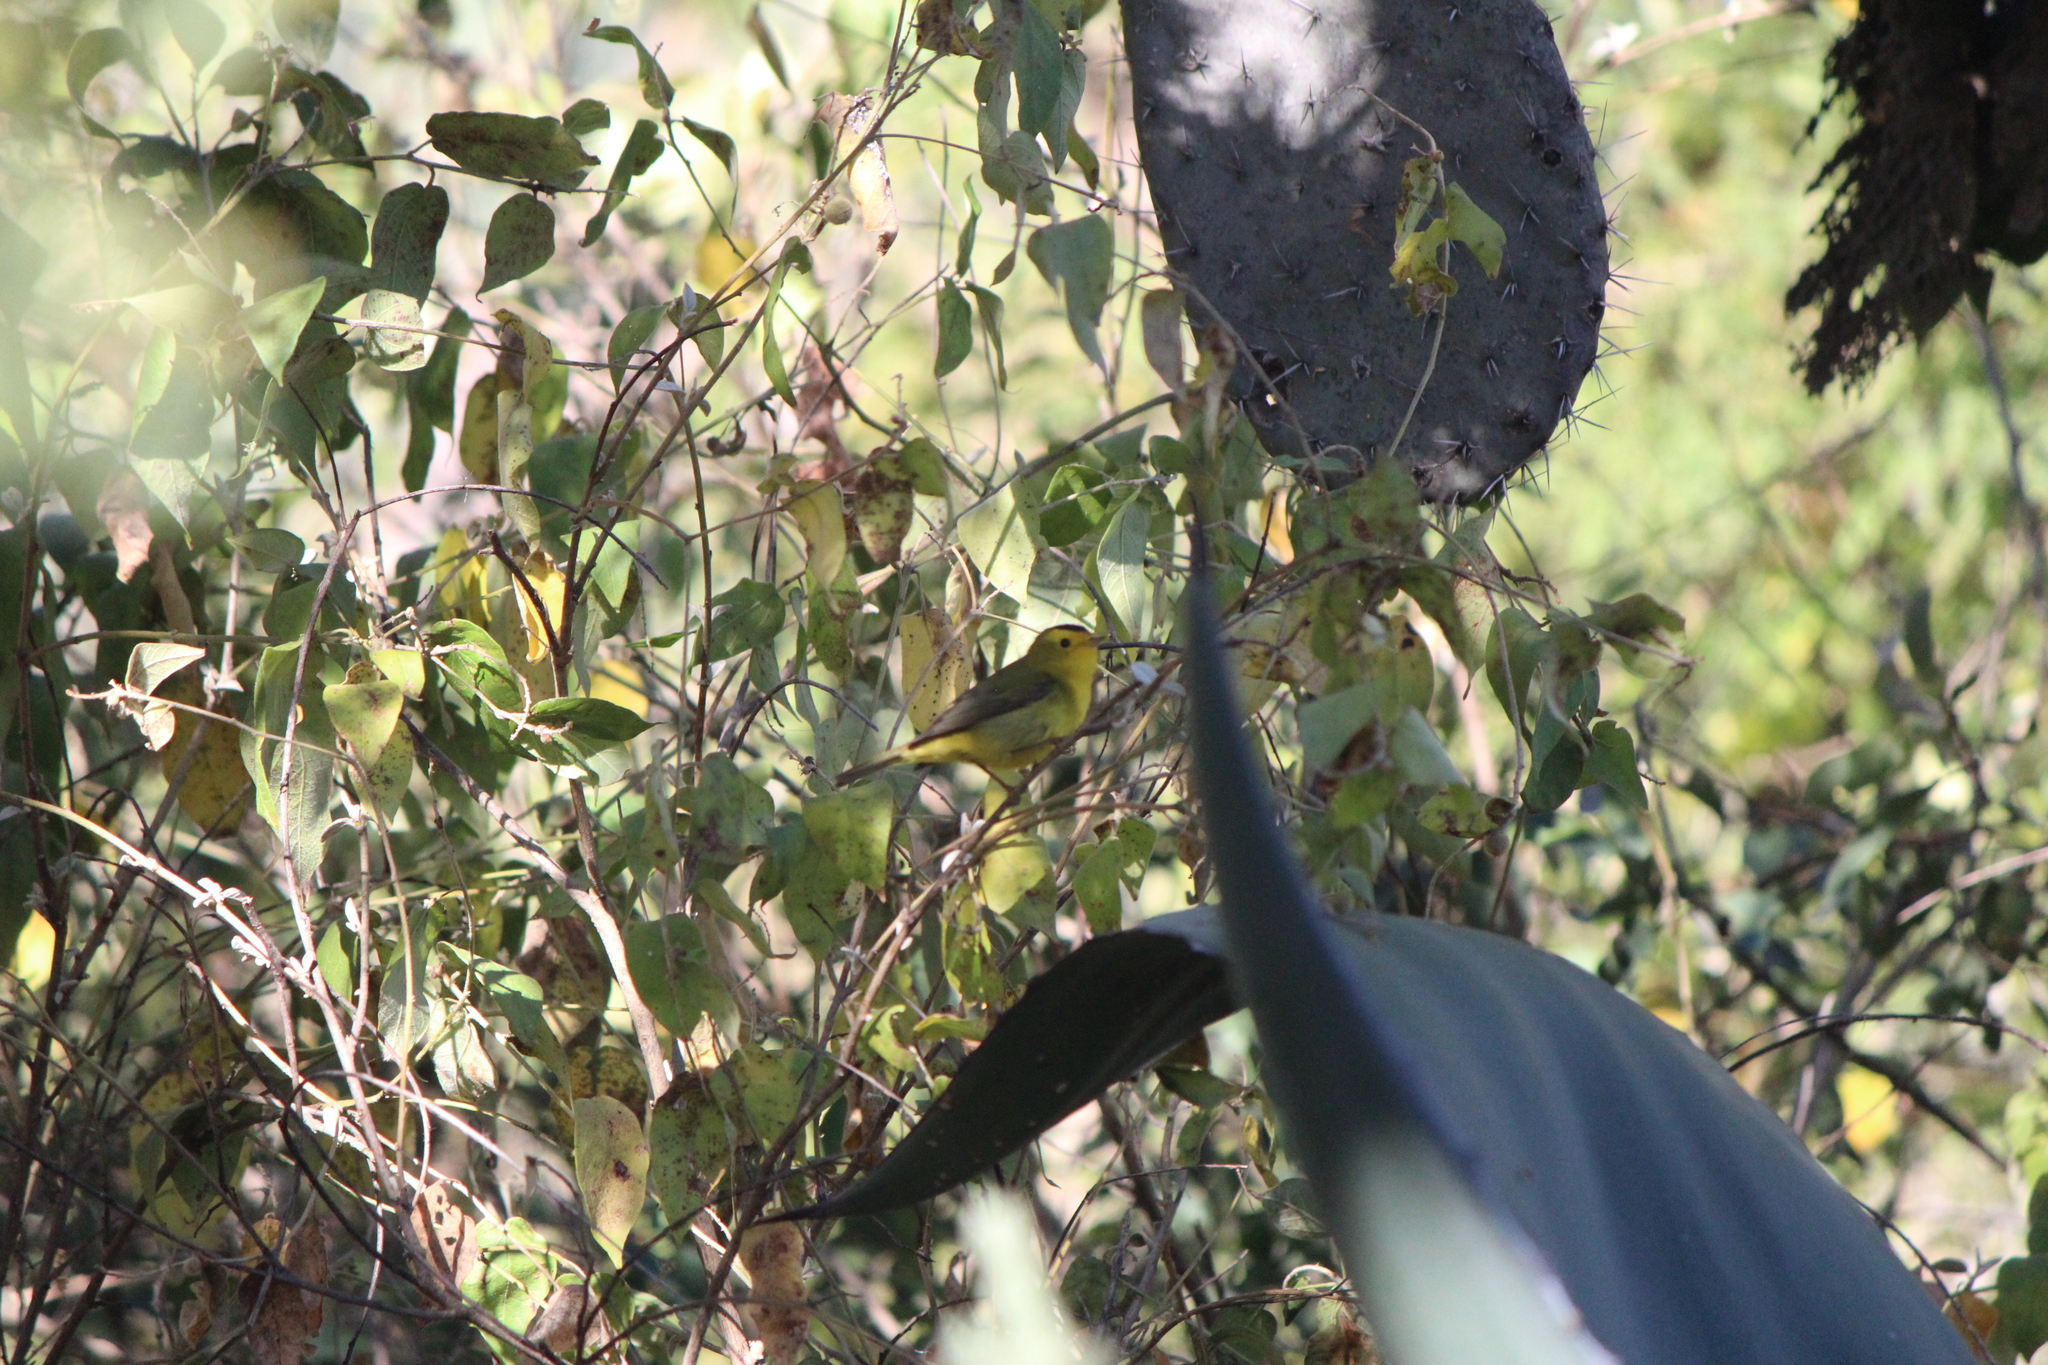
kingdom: Animalia
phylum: Chordata
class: Aves
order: Passeriformes
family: Parulidae
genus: Cardellina
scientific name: Cardellina pusilla
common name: Wilson's warbler
